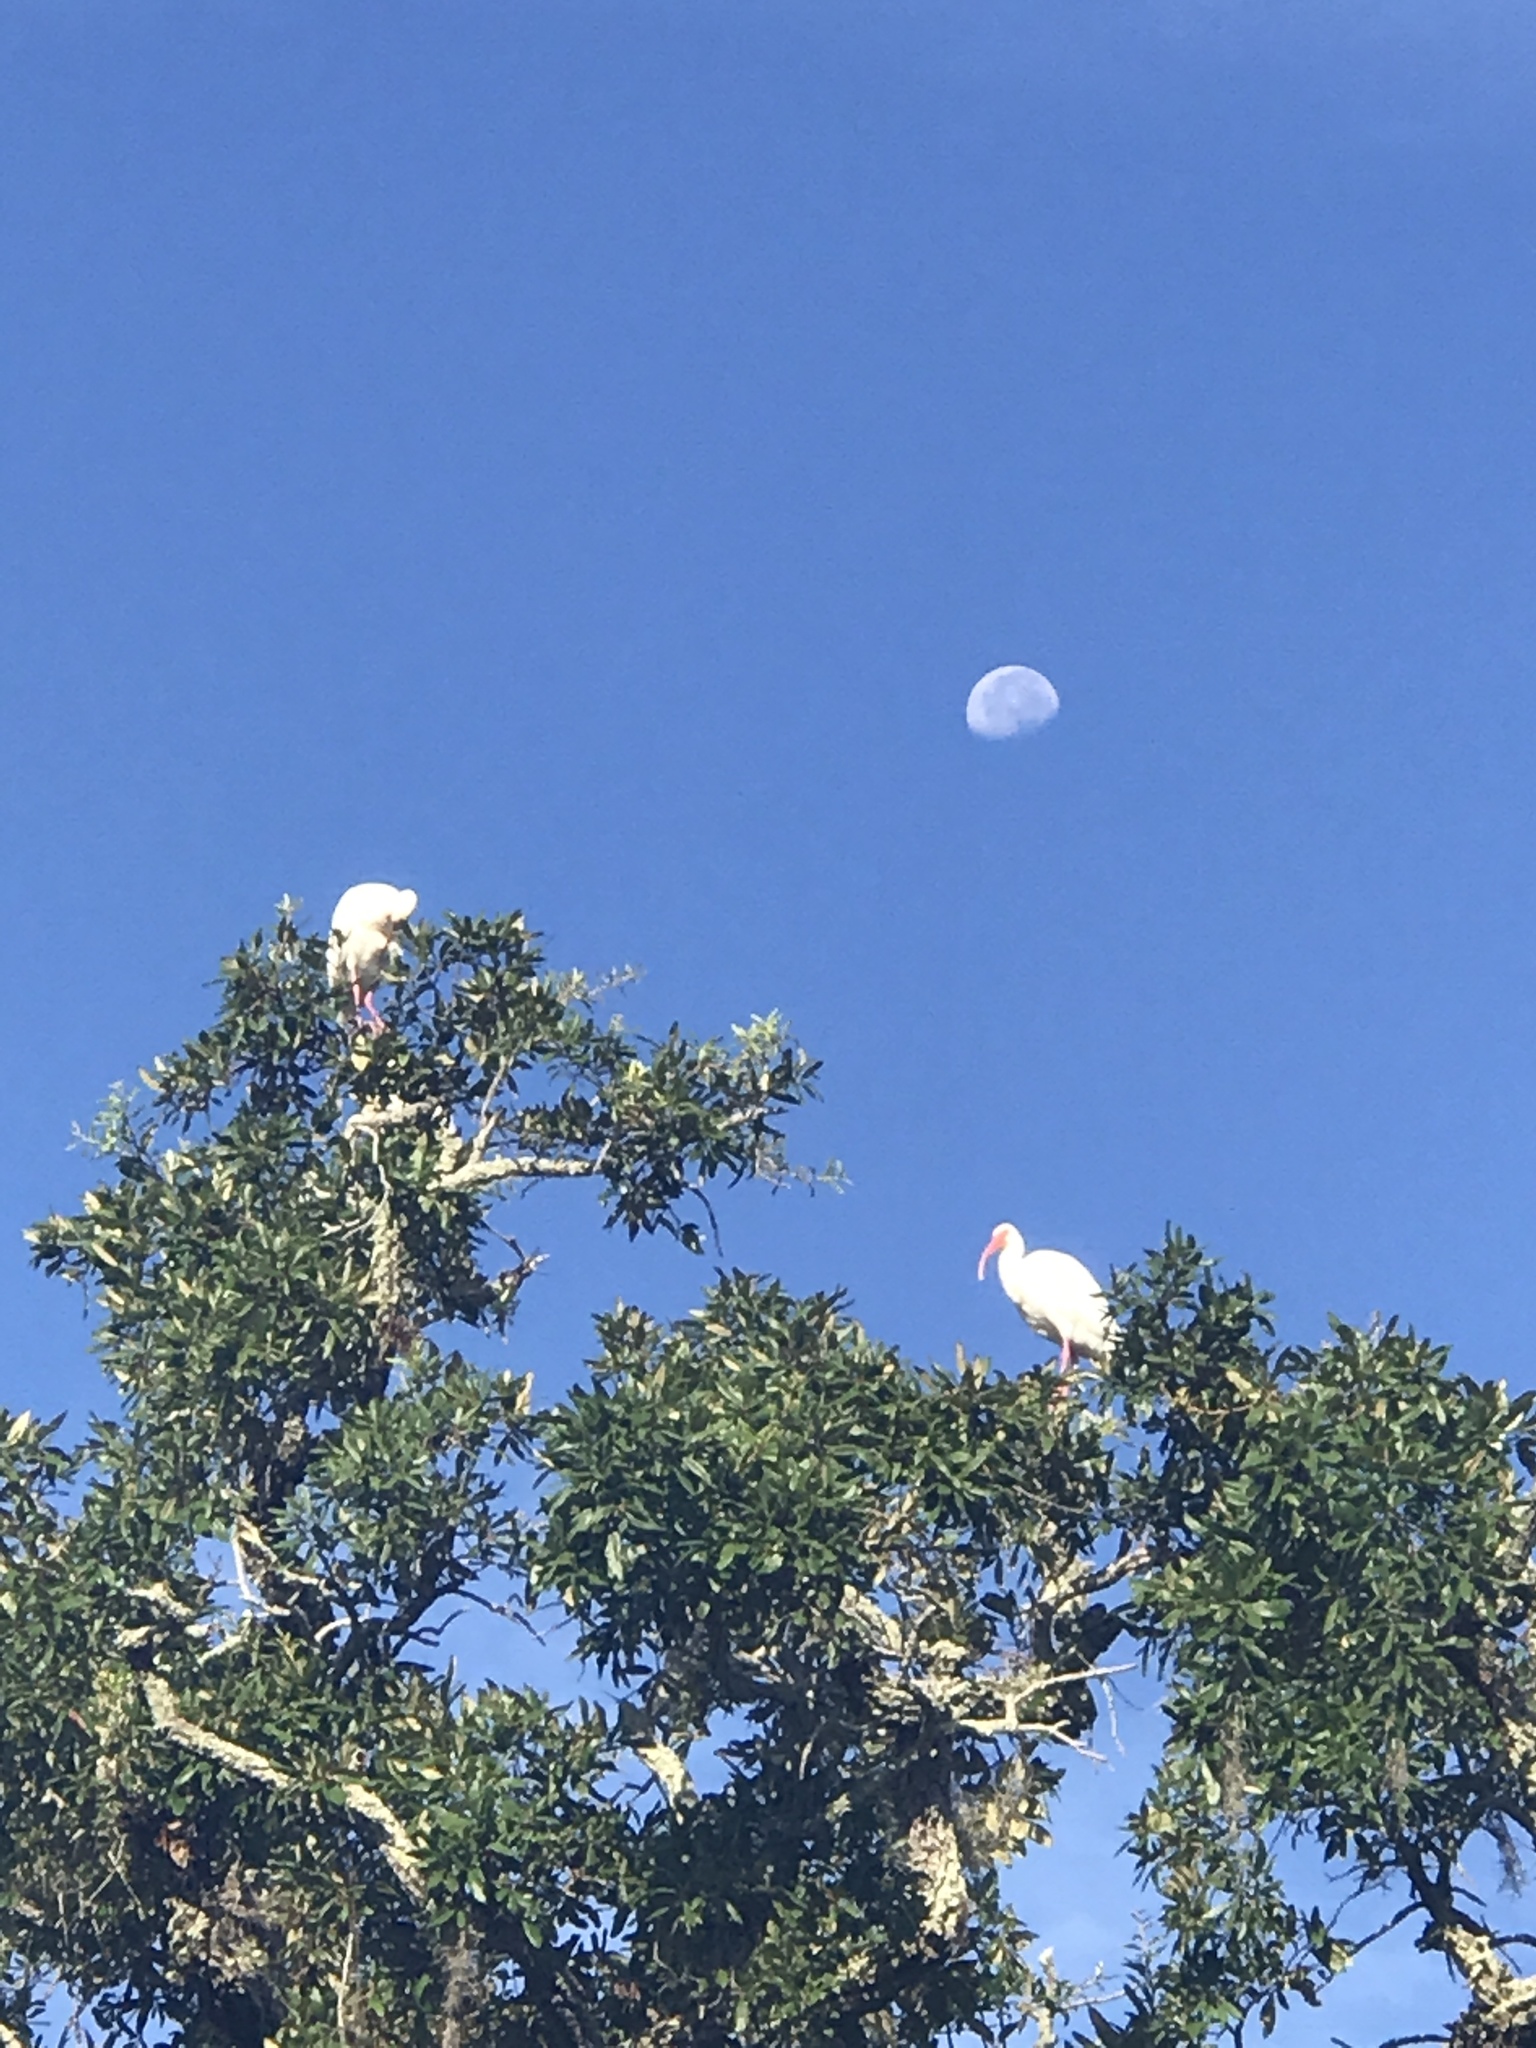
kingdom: Animalia
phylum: Chordata
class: Aves
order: Pelecaniformes
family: Threskiornithidae
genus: Eudocimus
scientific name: Eudocimus albus
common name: White ibis
